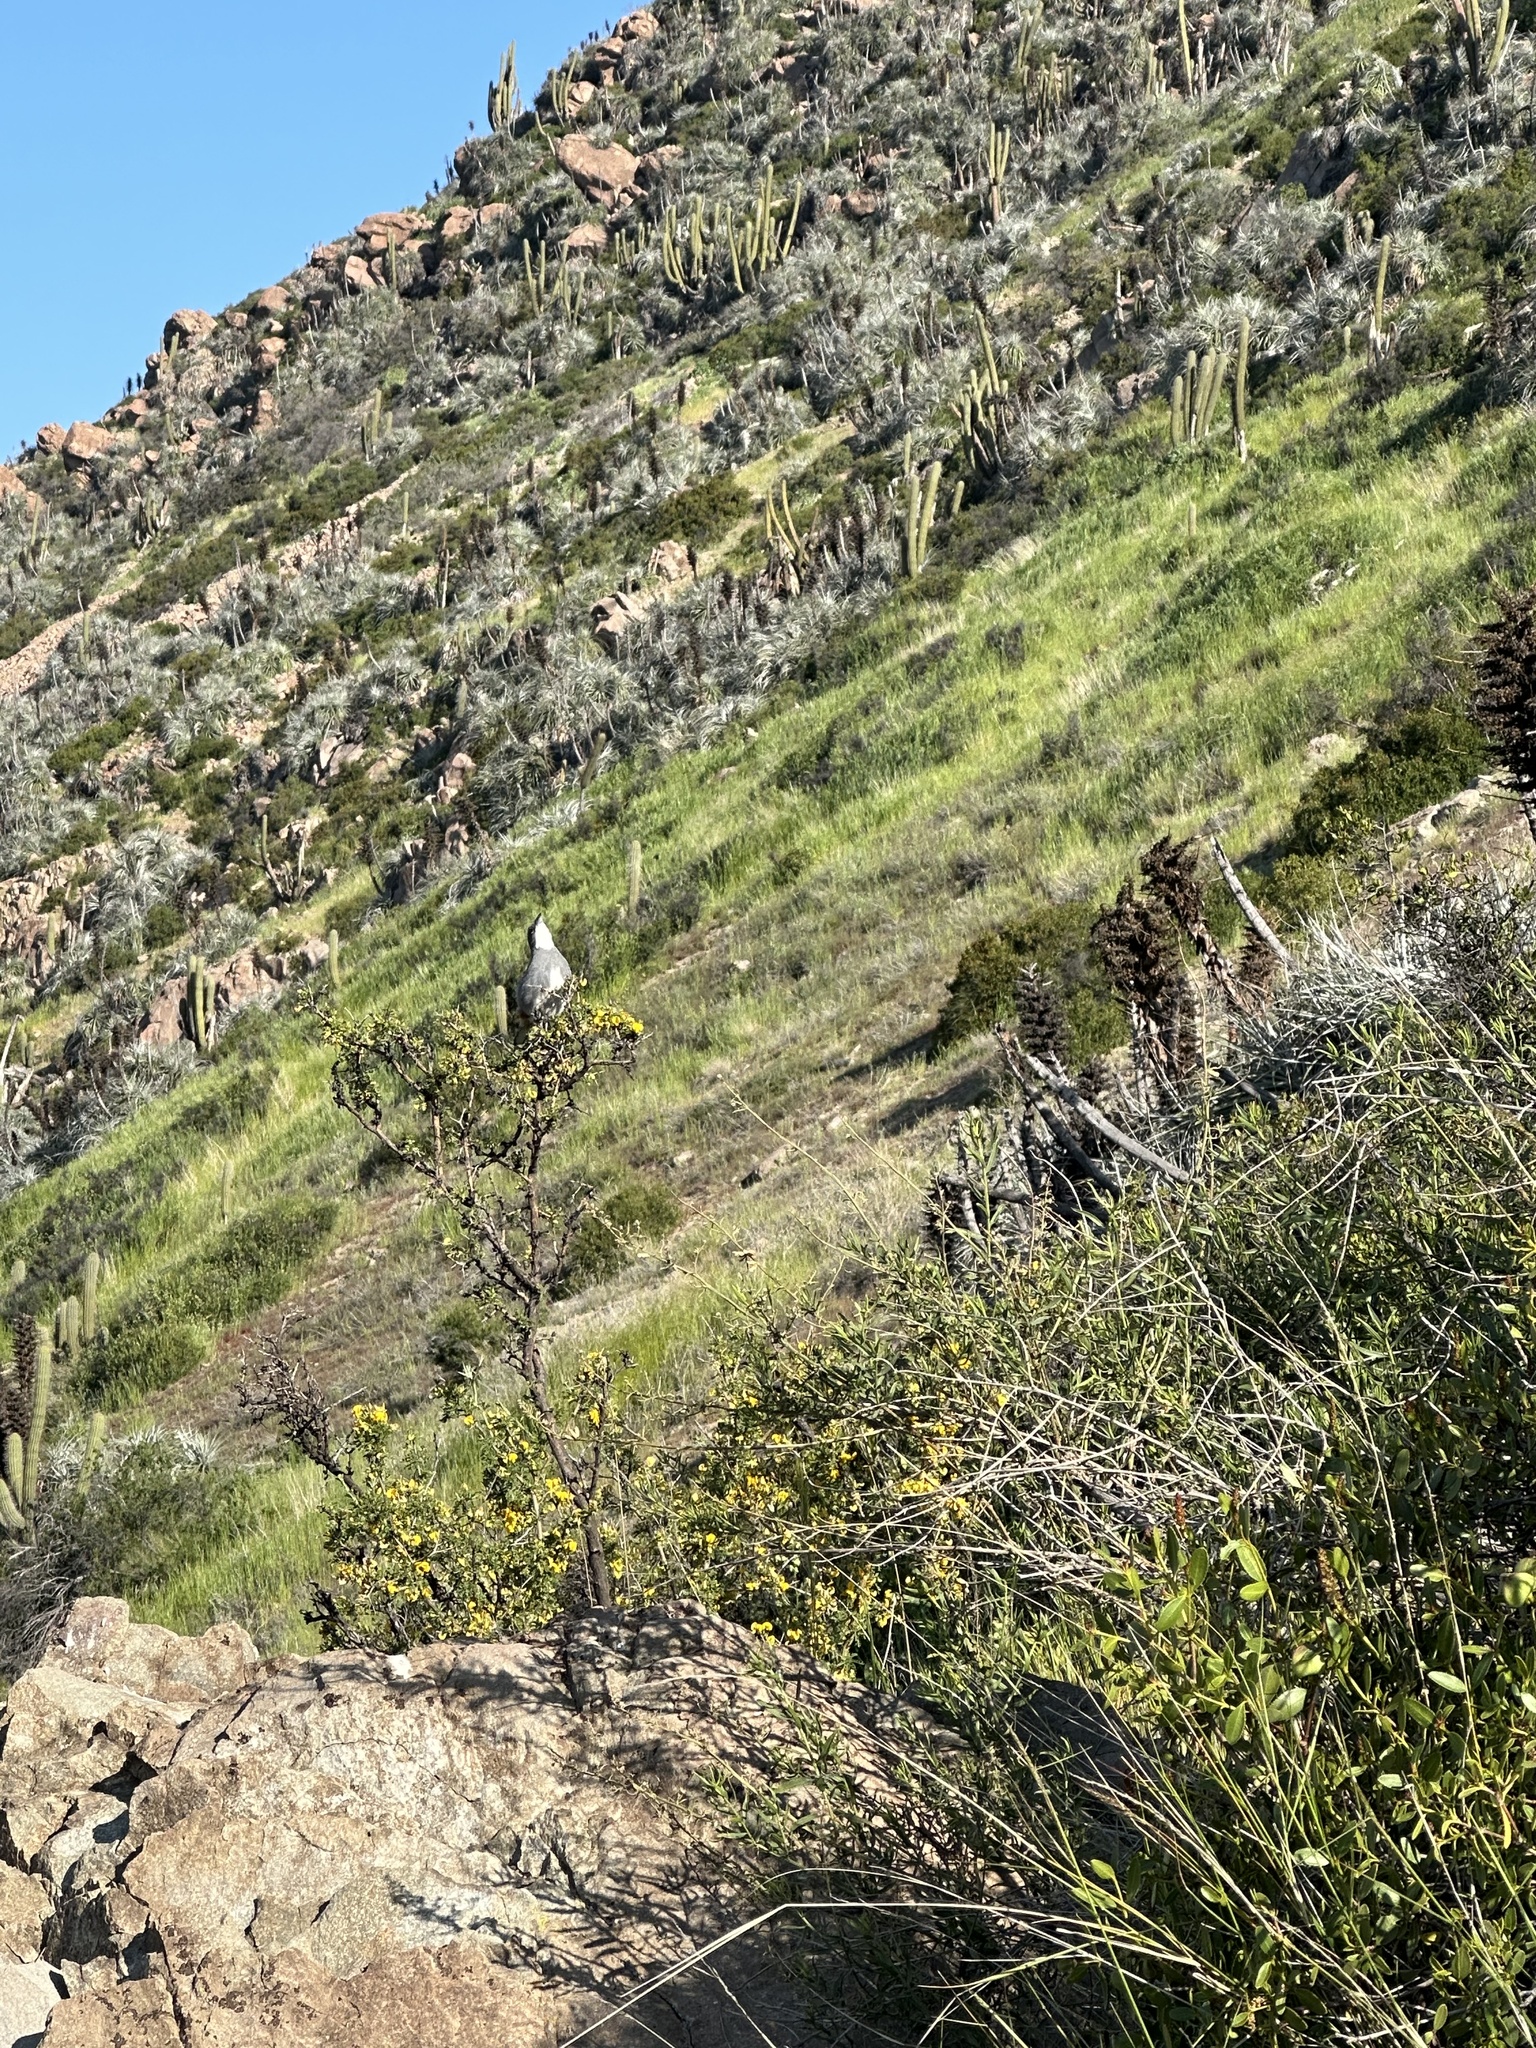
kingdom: Animalia
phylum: Chordata
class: Aves
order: Passeriformes
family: Thraupidae
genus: Diuca
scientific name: Diuca diuca
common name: Common diuca finch
